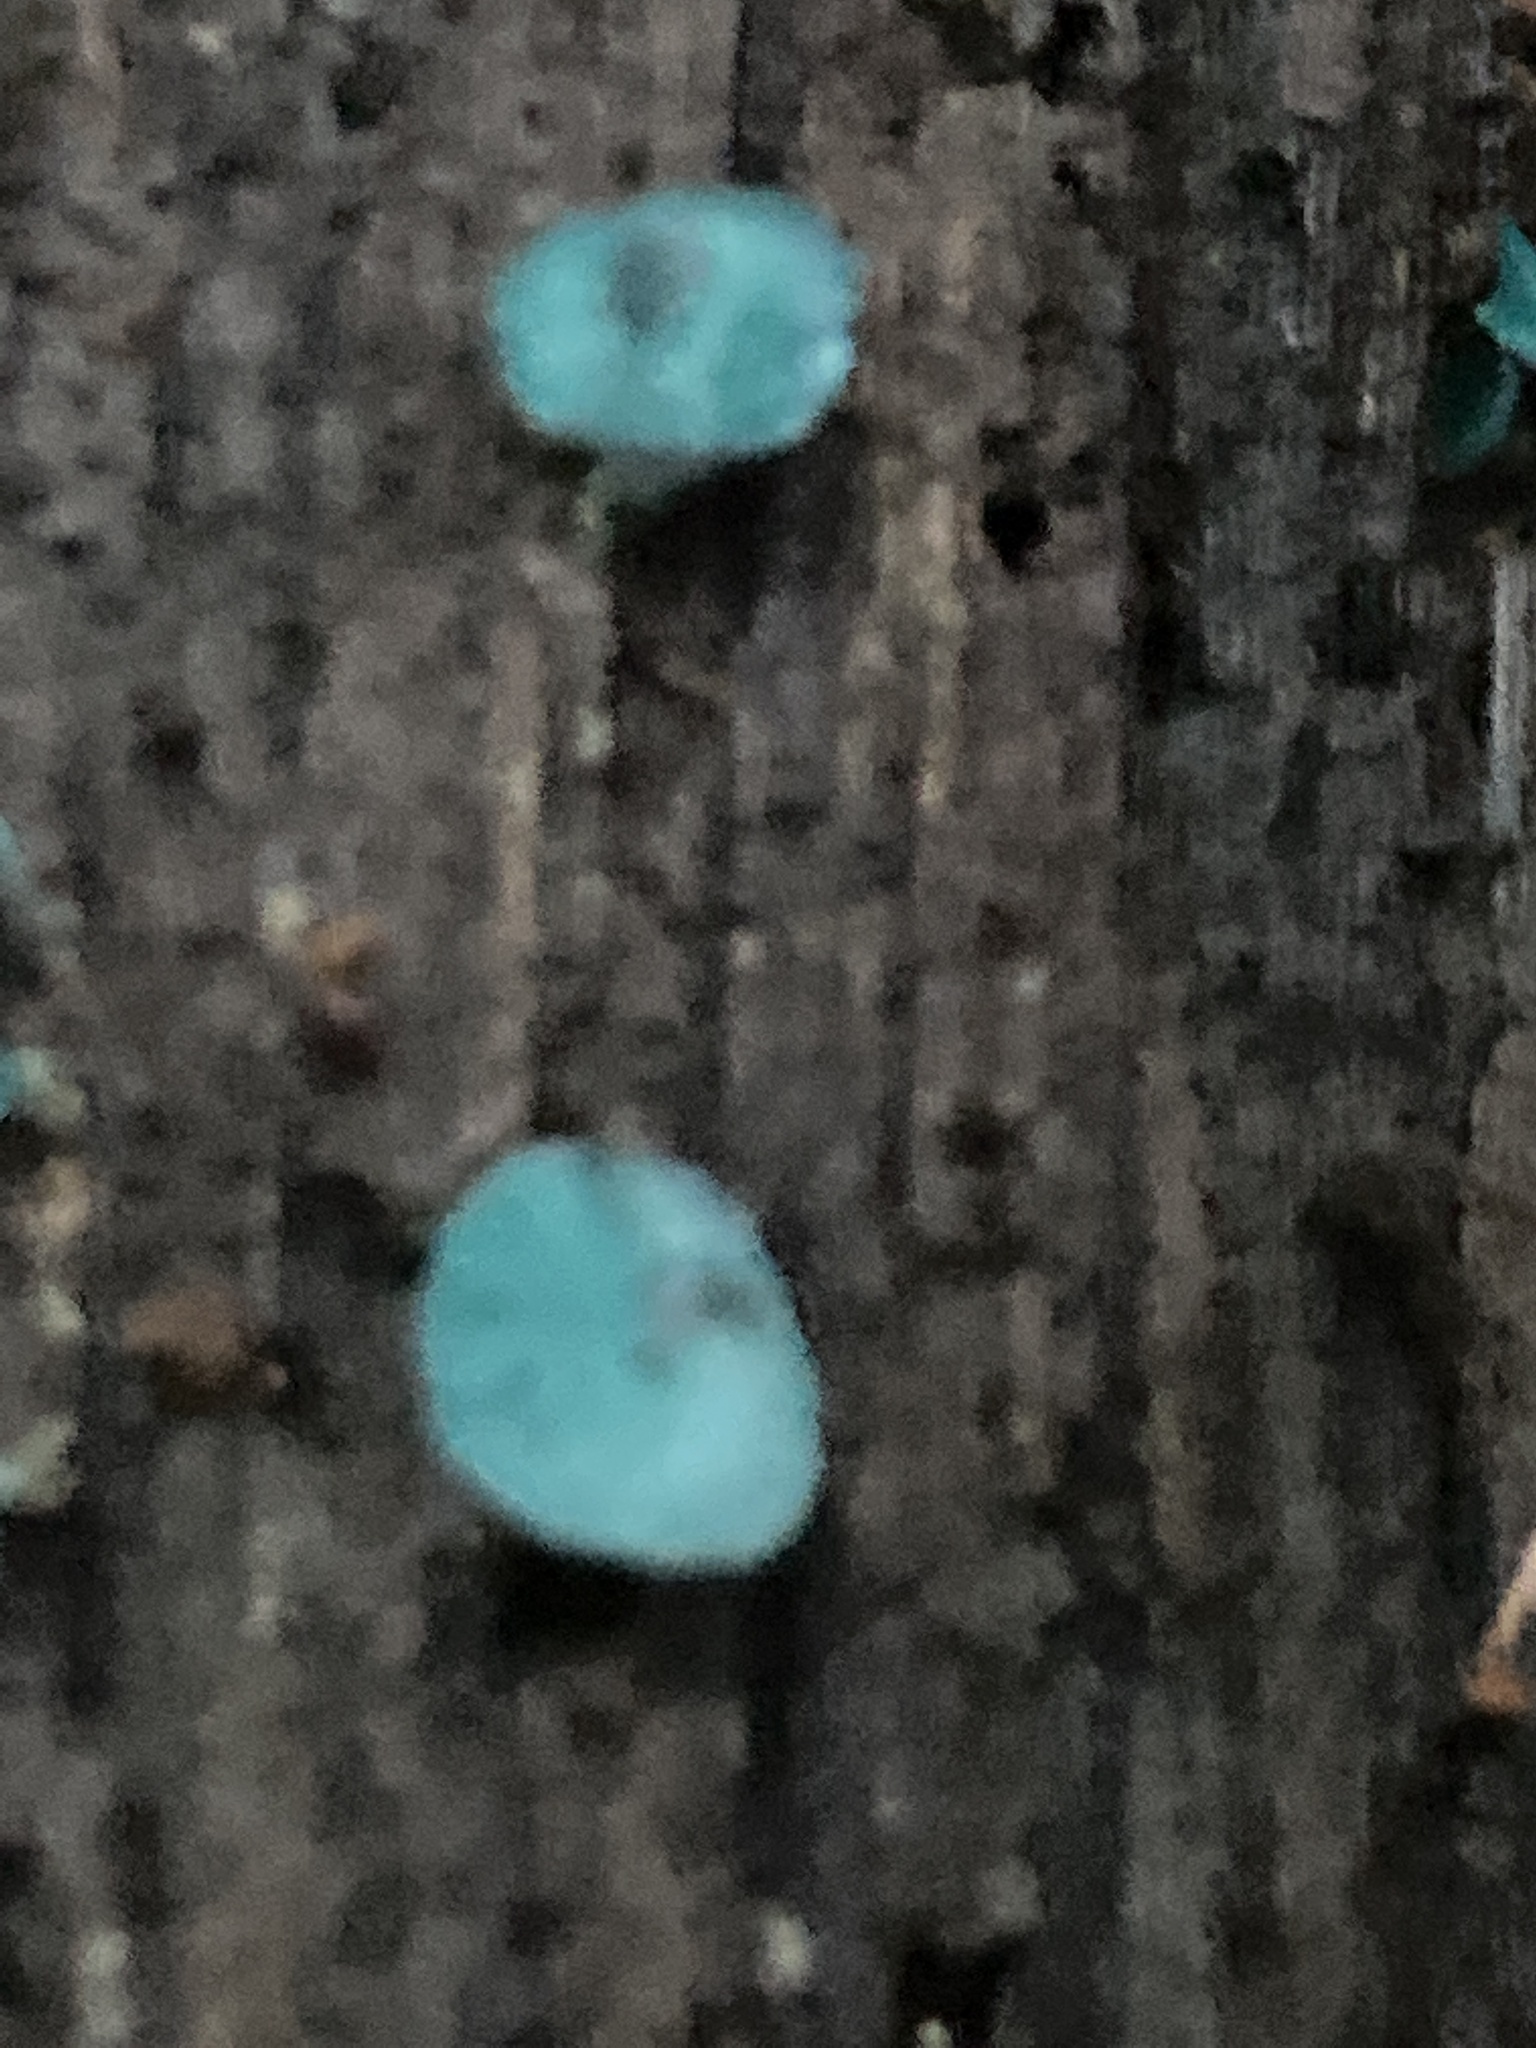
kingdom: Fungi
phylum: Ascomycota
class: Leotiomycetes
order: Helotiales
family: Chlorociboriaceae
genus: Chlorociboria
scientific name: Chlorociboria aeruginascens
